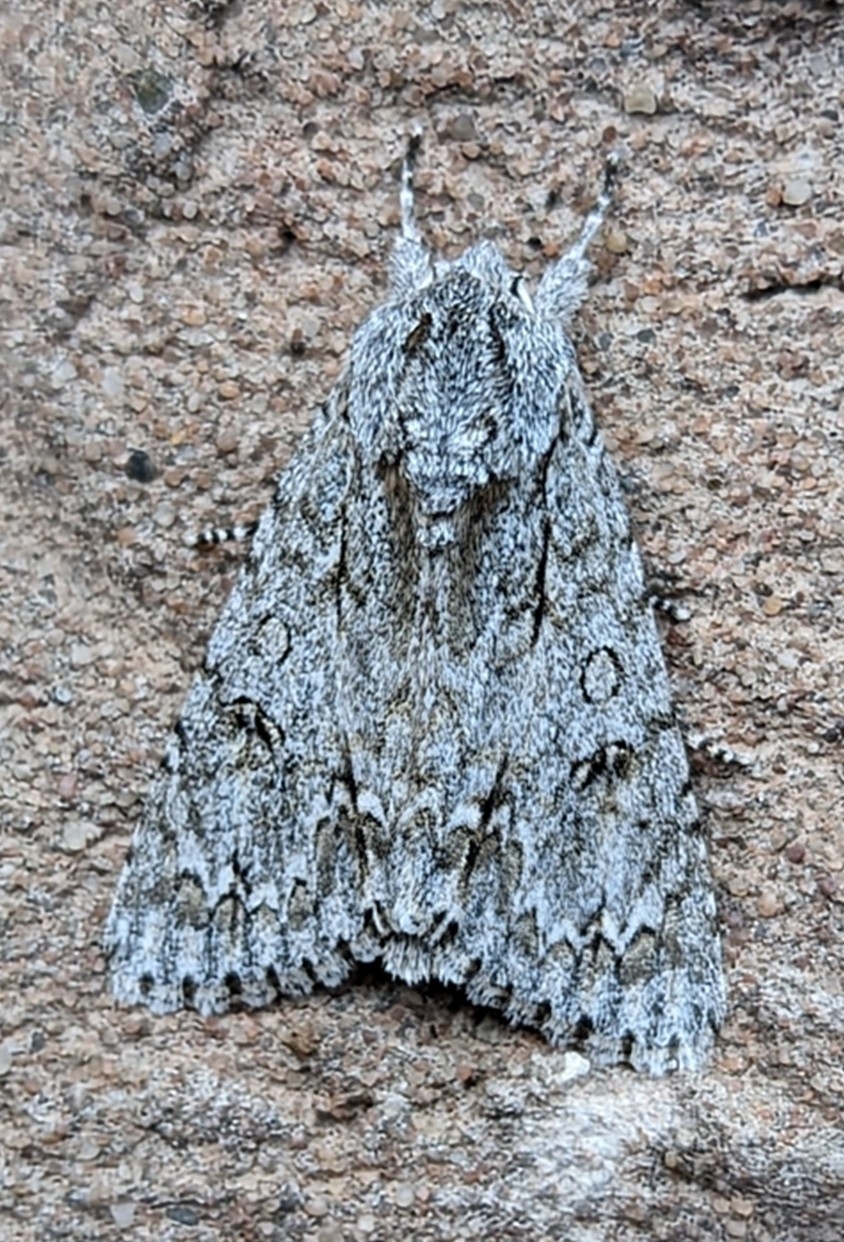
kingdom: Animalia
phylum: Arthropoda
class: Insecta
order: Lepidoptera
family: Noctuidae
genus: Acronicta
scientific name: Acronicta aceris
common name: Sycamore
